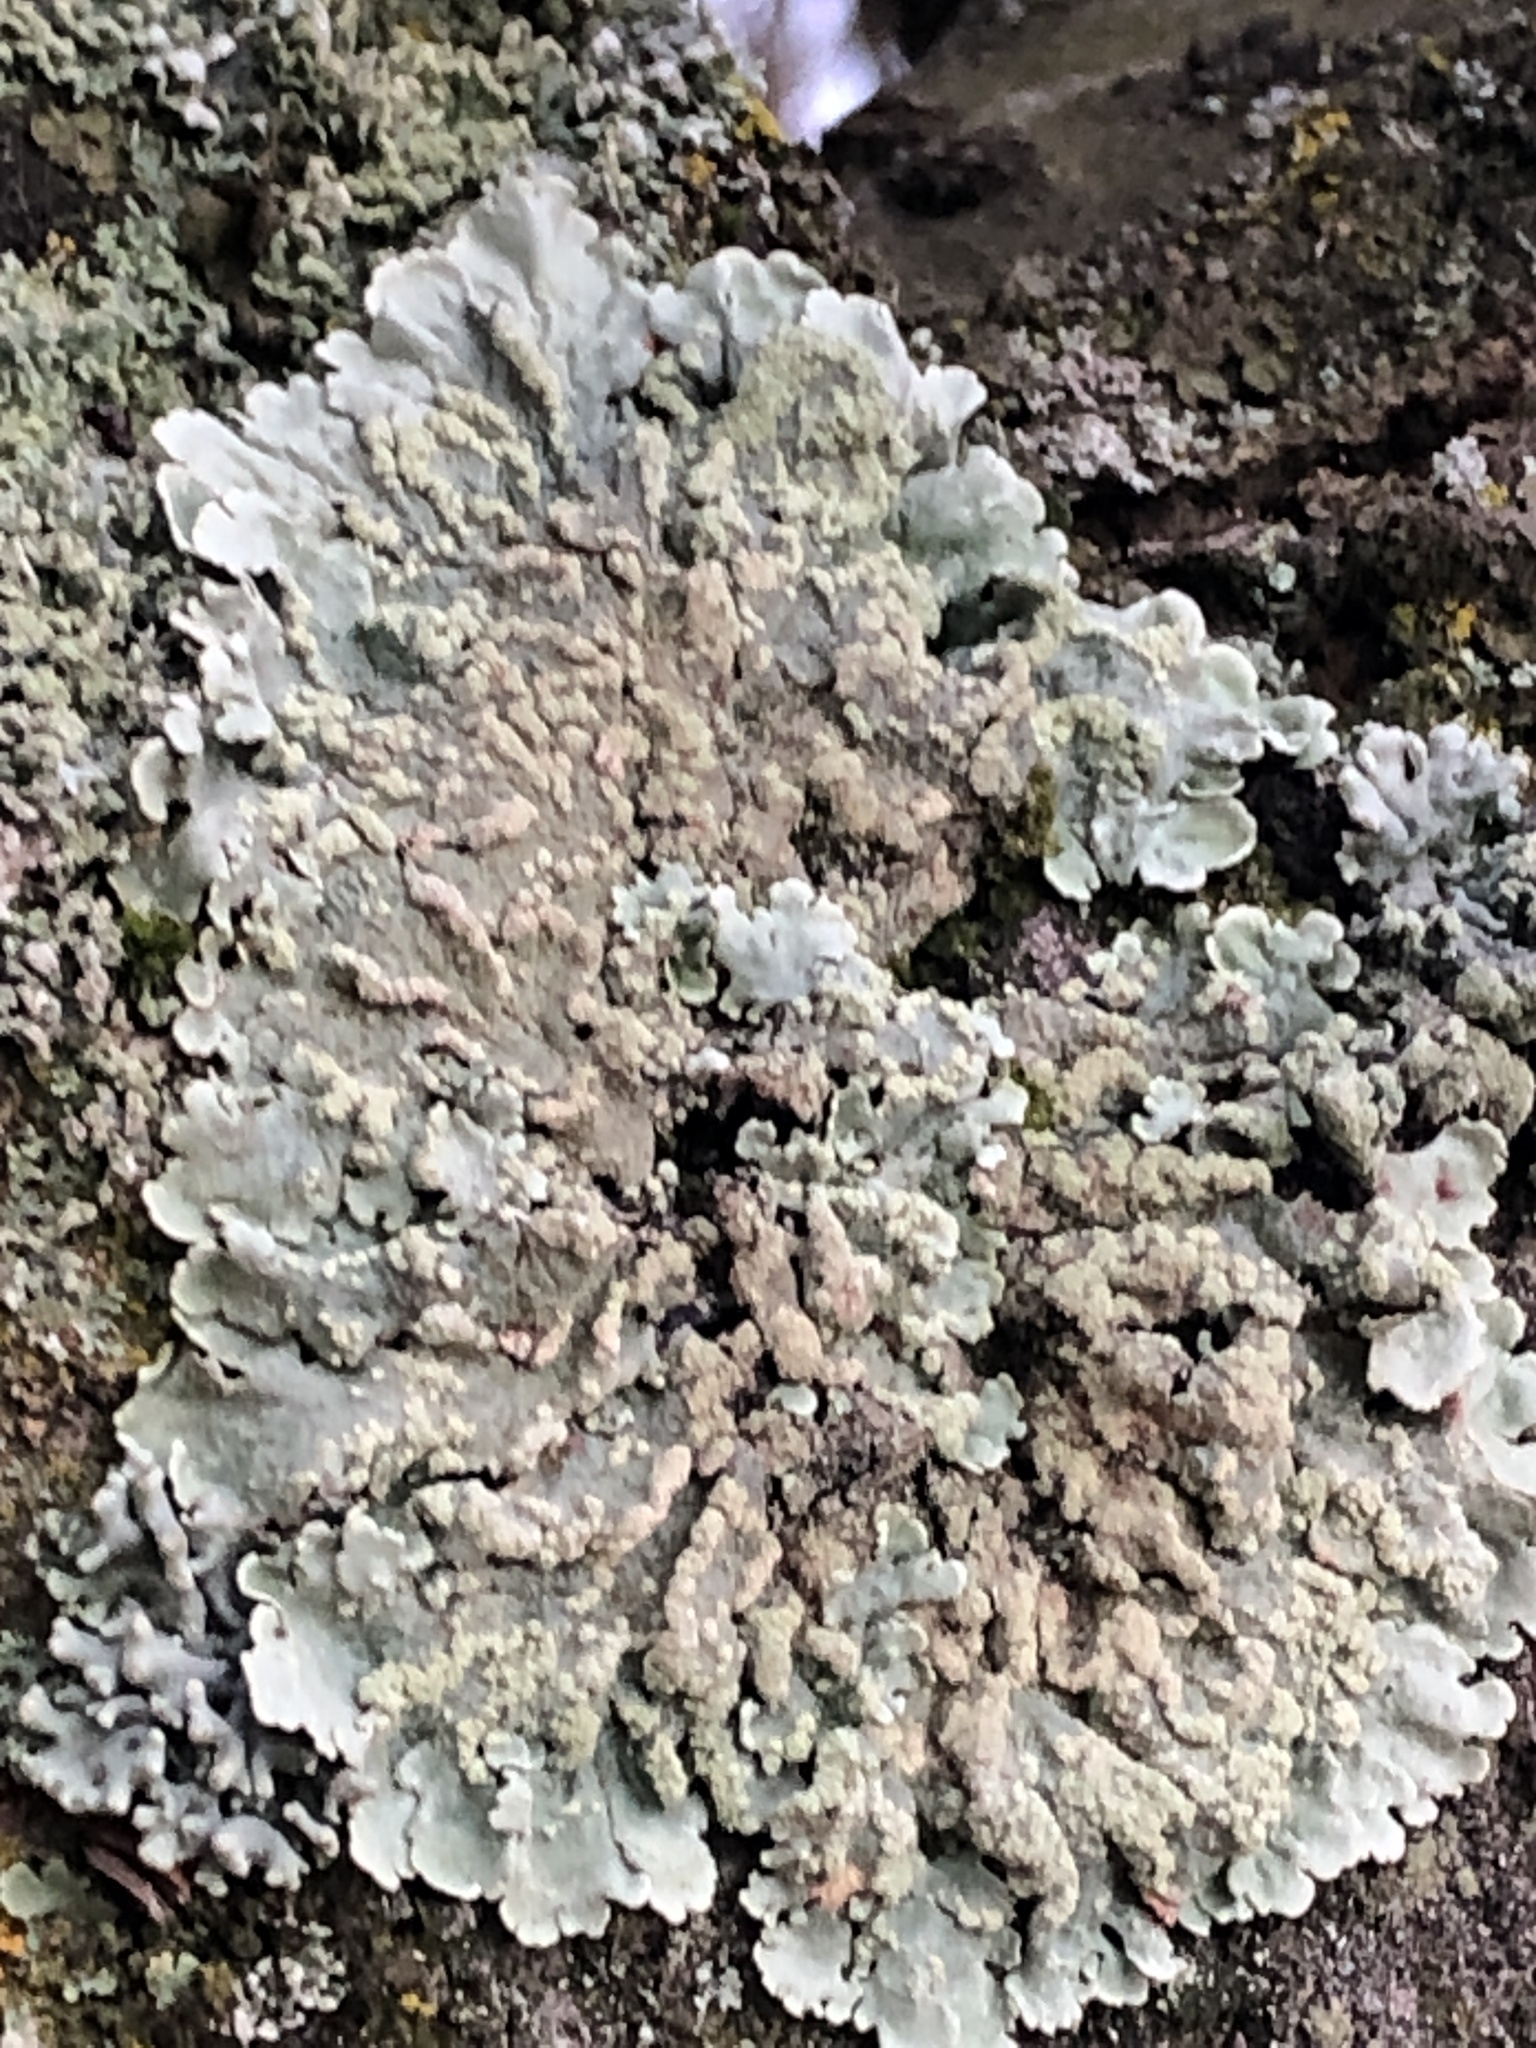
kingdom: Fungi
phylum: Ascomycota
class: Lecanoromycetes
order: Lecanorales
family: Parmeliaceae
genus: Flavoparmelia
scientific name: Flavoparmelia soredians
